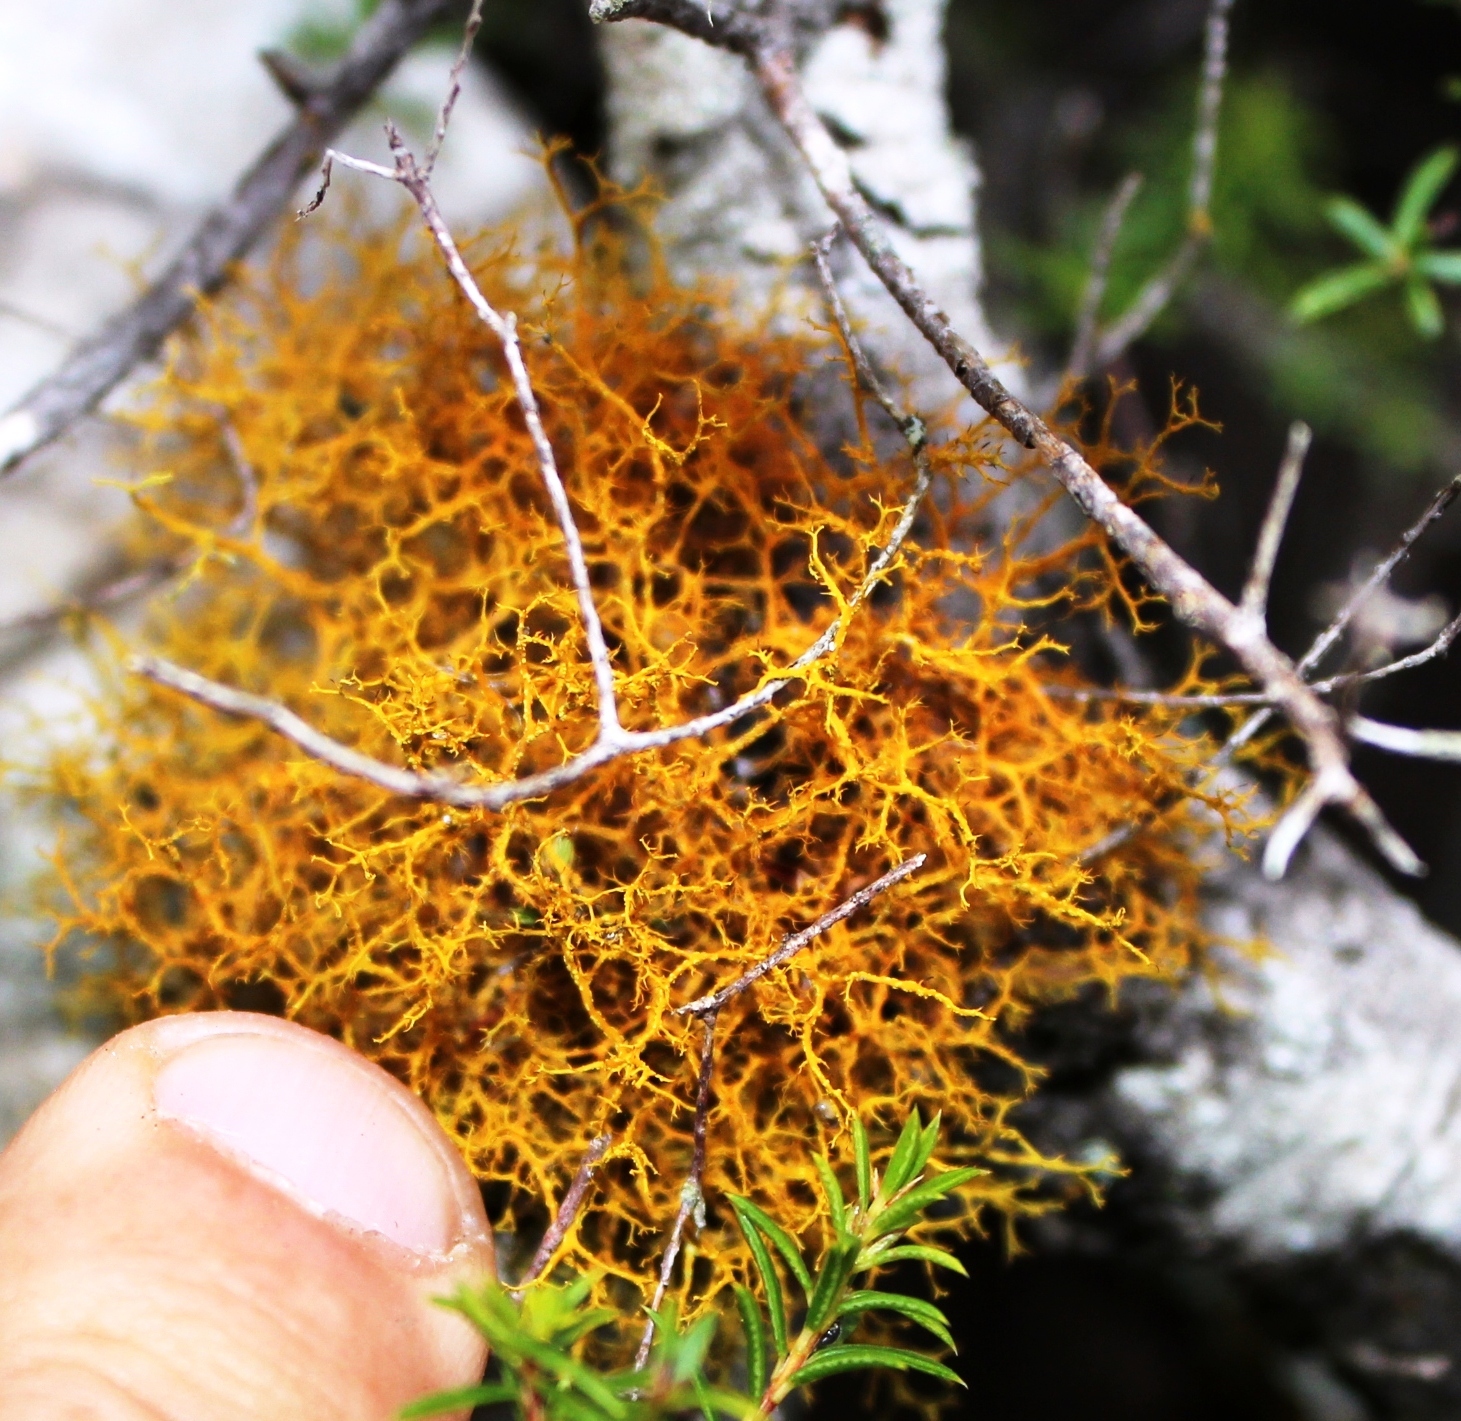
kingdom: Fungi
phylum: Ascomycota
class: Lecanoromycetes
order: Teloschistales
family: Teloschistaceae
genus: Teloschistes
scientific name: Teloschistes flavicans
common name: Golden hair-lichen
